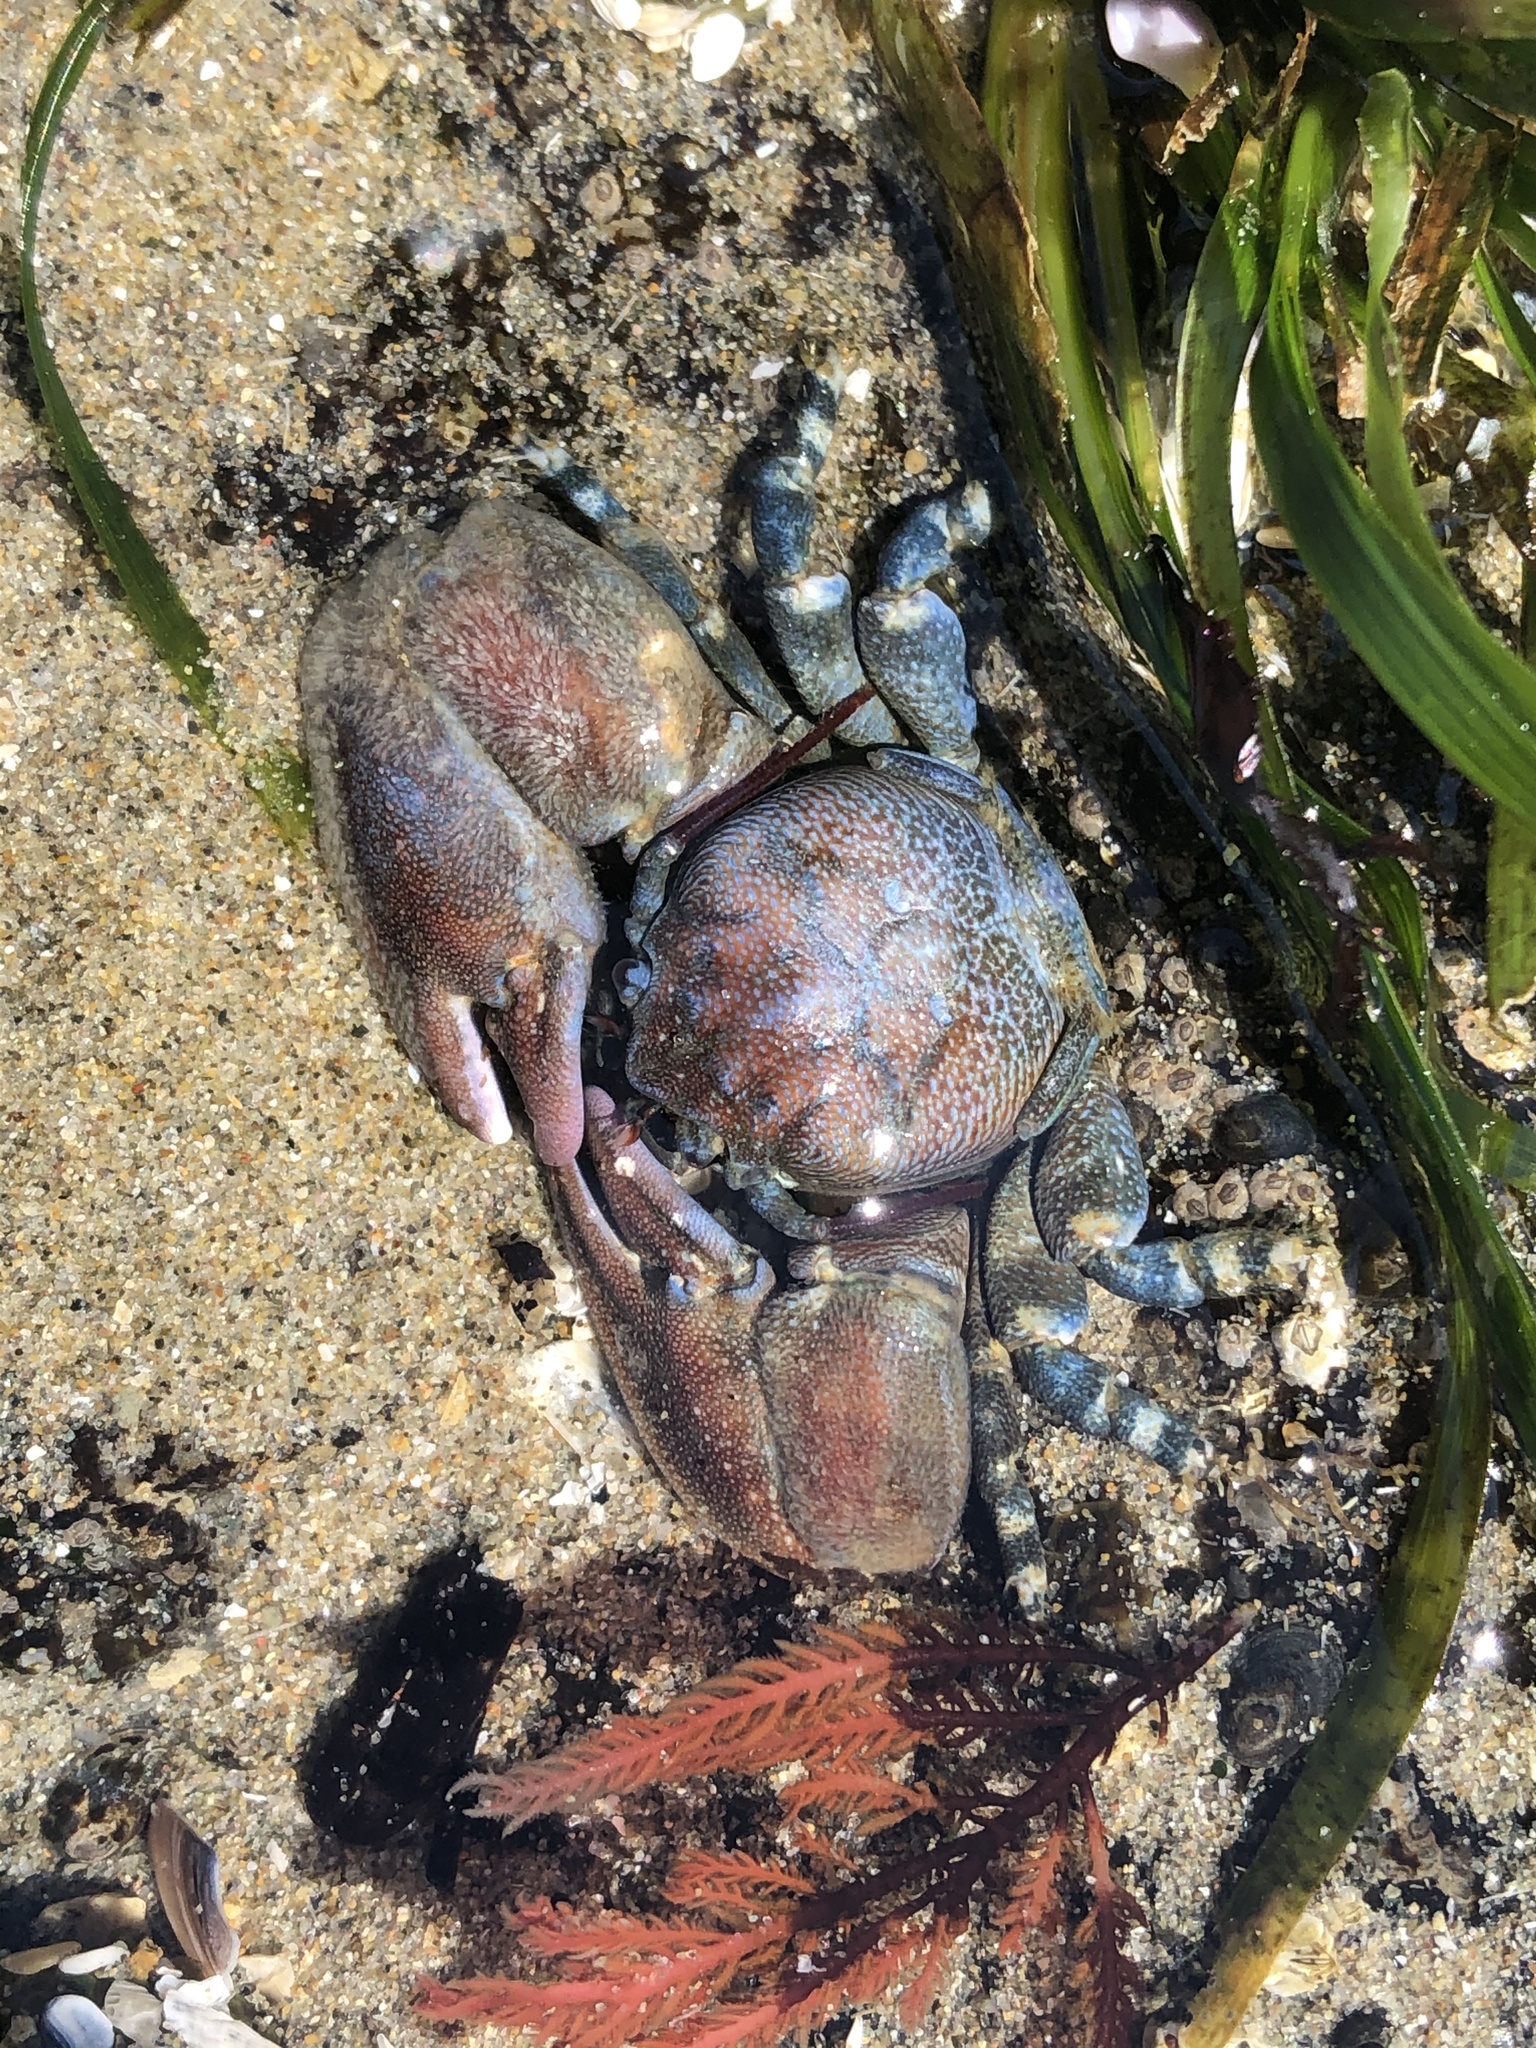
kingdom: Animalia
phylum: Arthropoda
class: Malacostraca
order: Decapoda
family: Porcellanidae
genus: Petrolisthes
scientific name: Petrolisthes cinctipes
